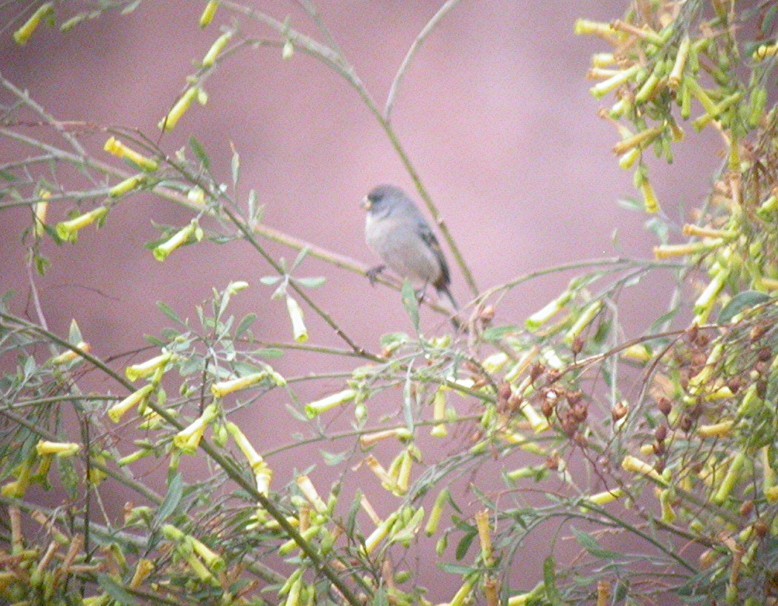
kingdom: Animalia
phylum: Chordata
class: Aves
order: Passeriformes
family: Thraupidae
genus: Catamenia
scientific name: Catamenia analis
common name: Band-tailed seedeater
